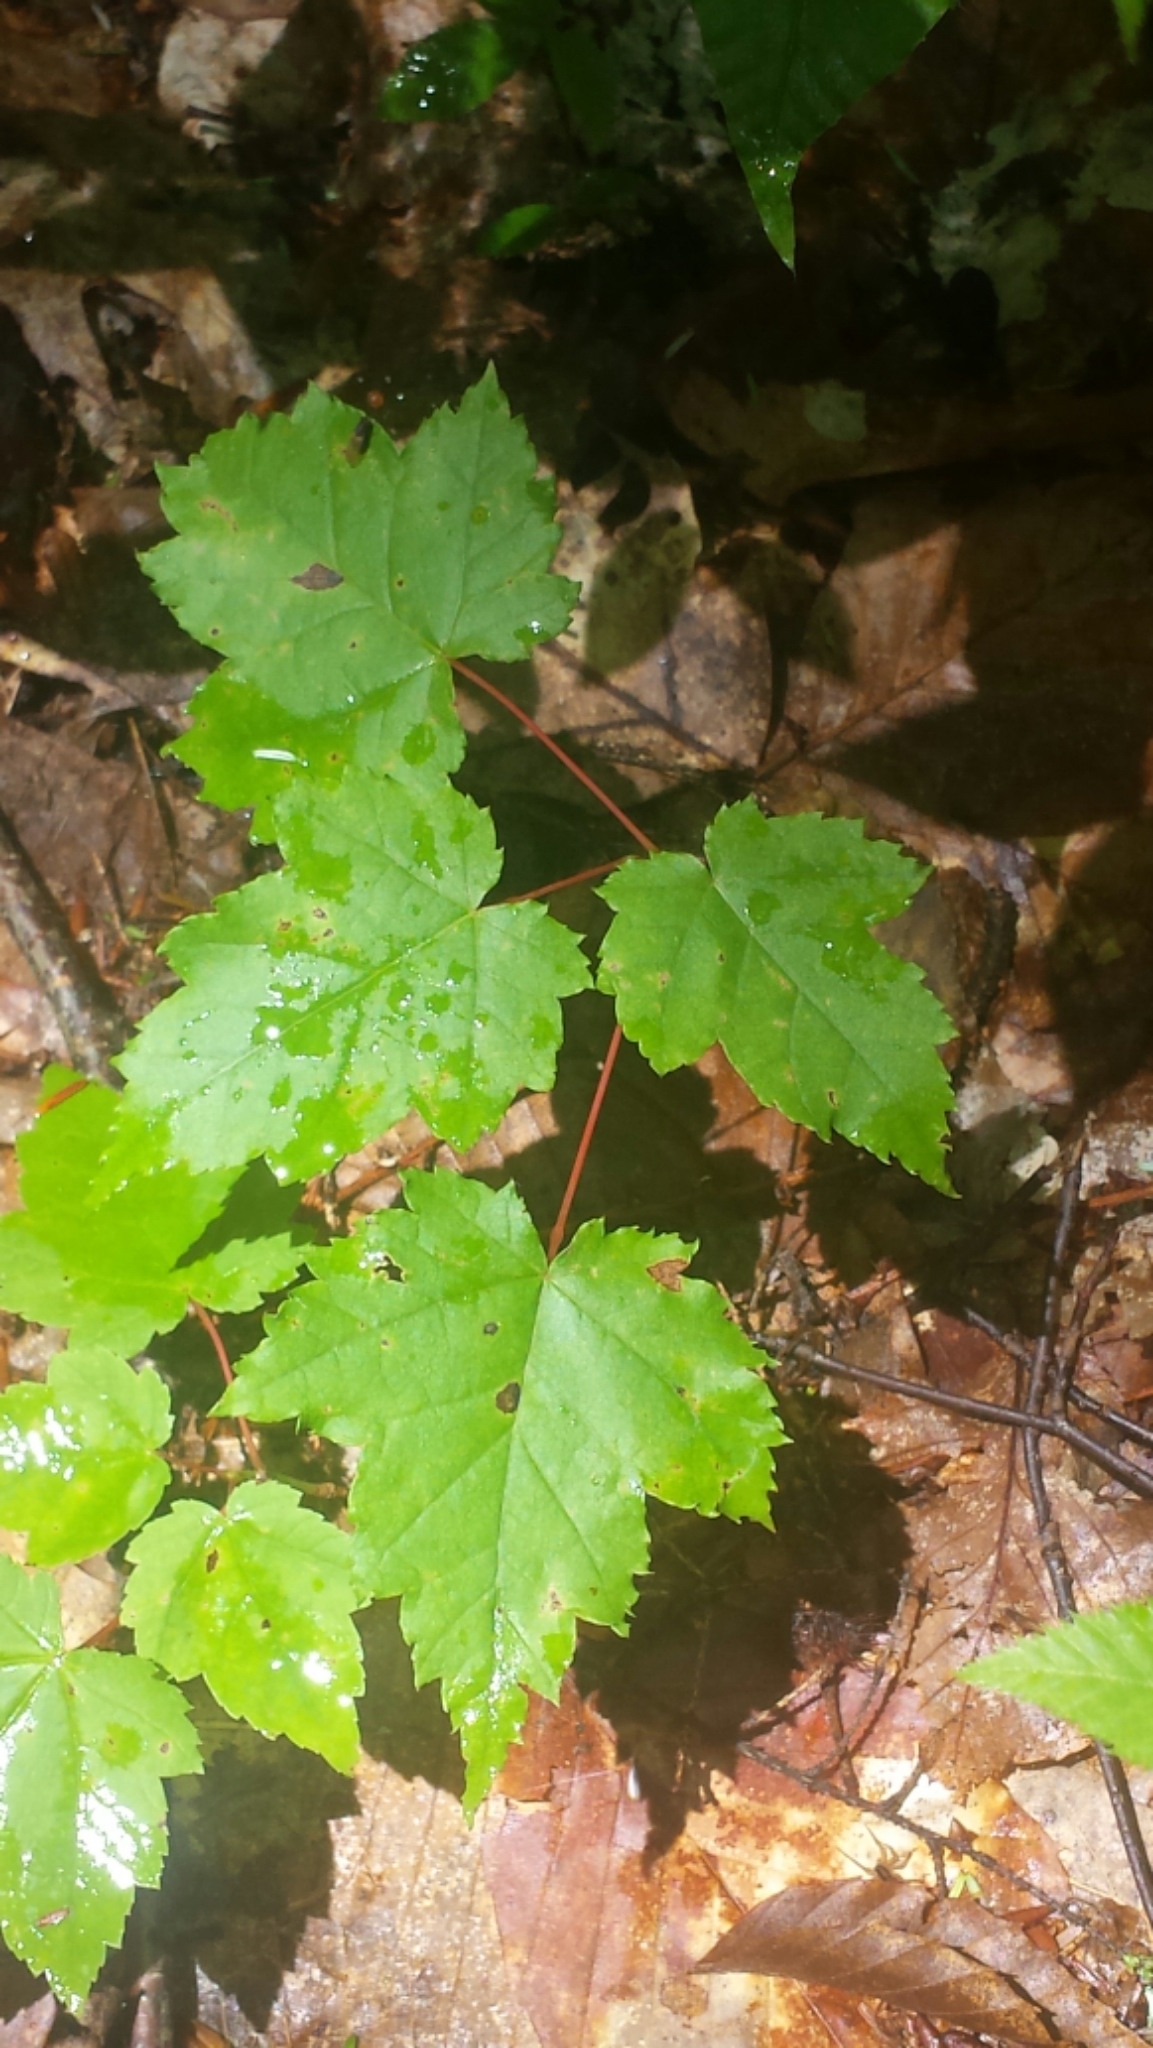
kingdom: Plantae
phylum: Tracheophyta
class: Magnoliopsida
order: Sapindales
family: Sapindaceae
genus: Acer
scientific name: Acer rubrum
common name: Red maple
